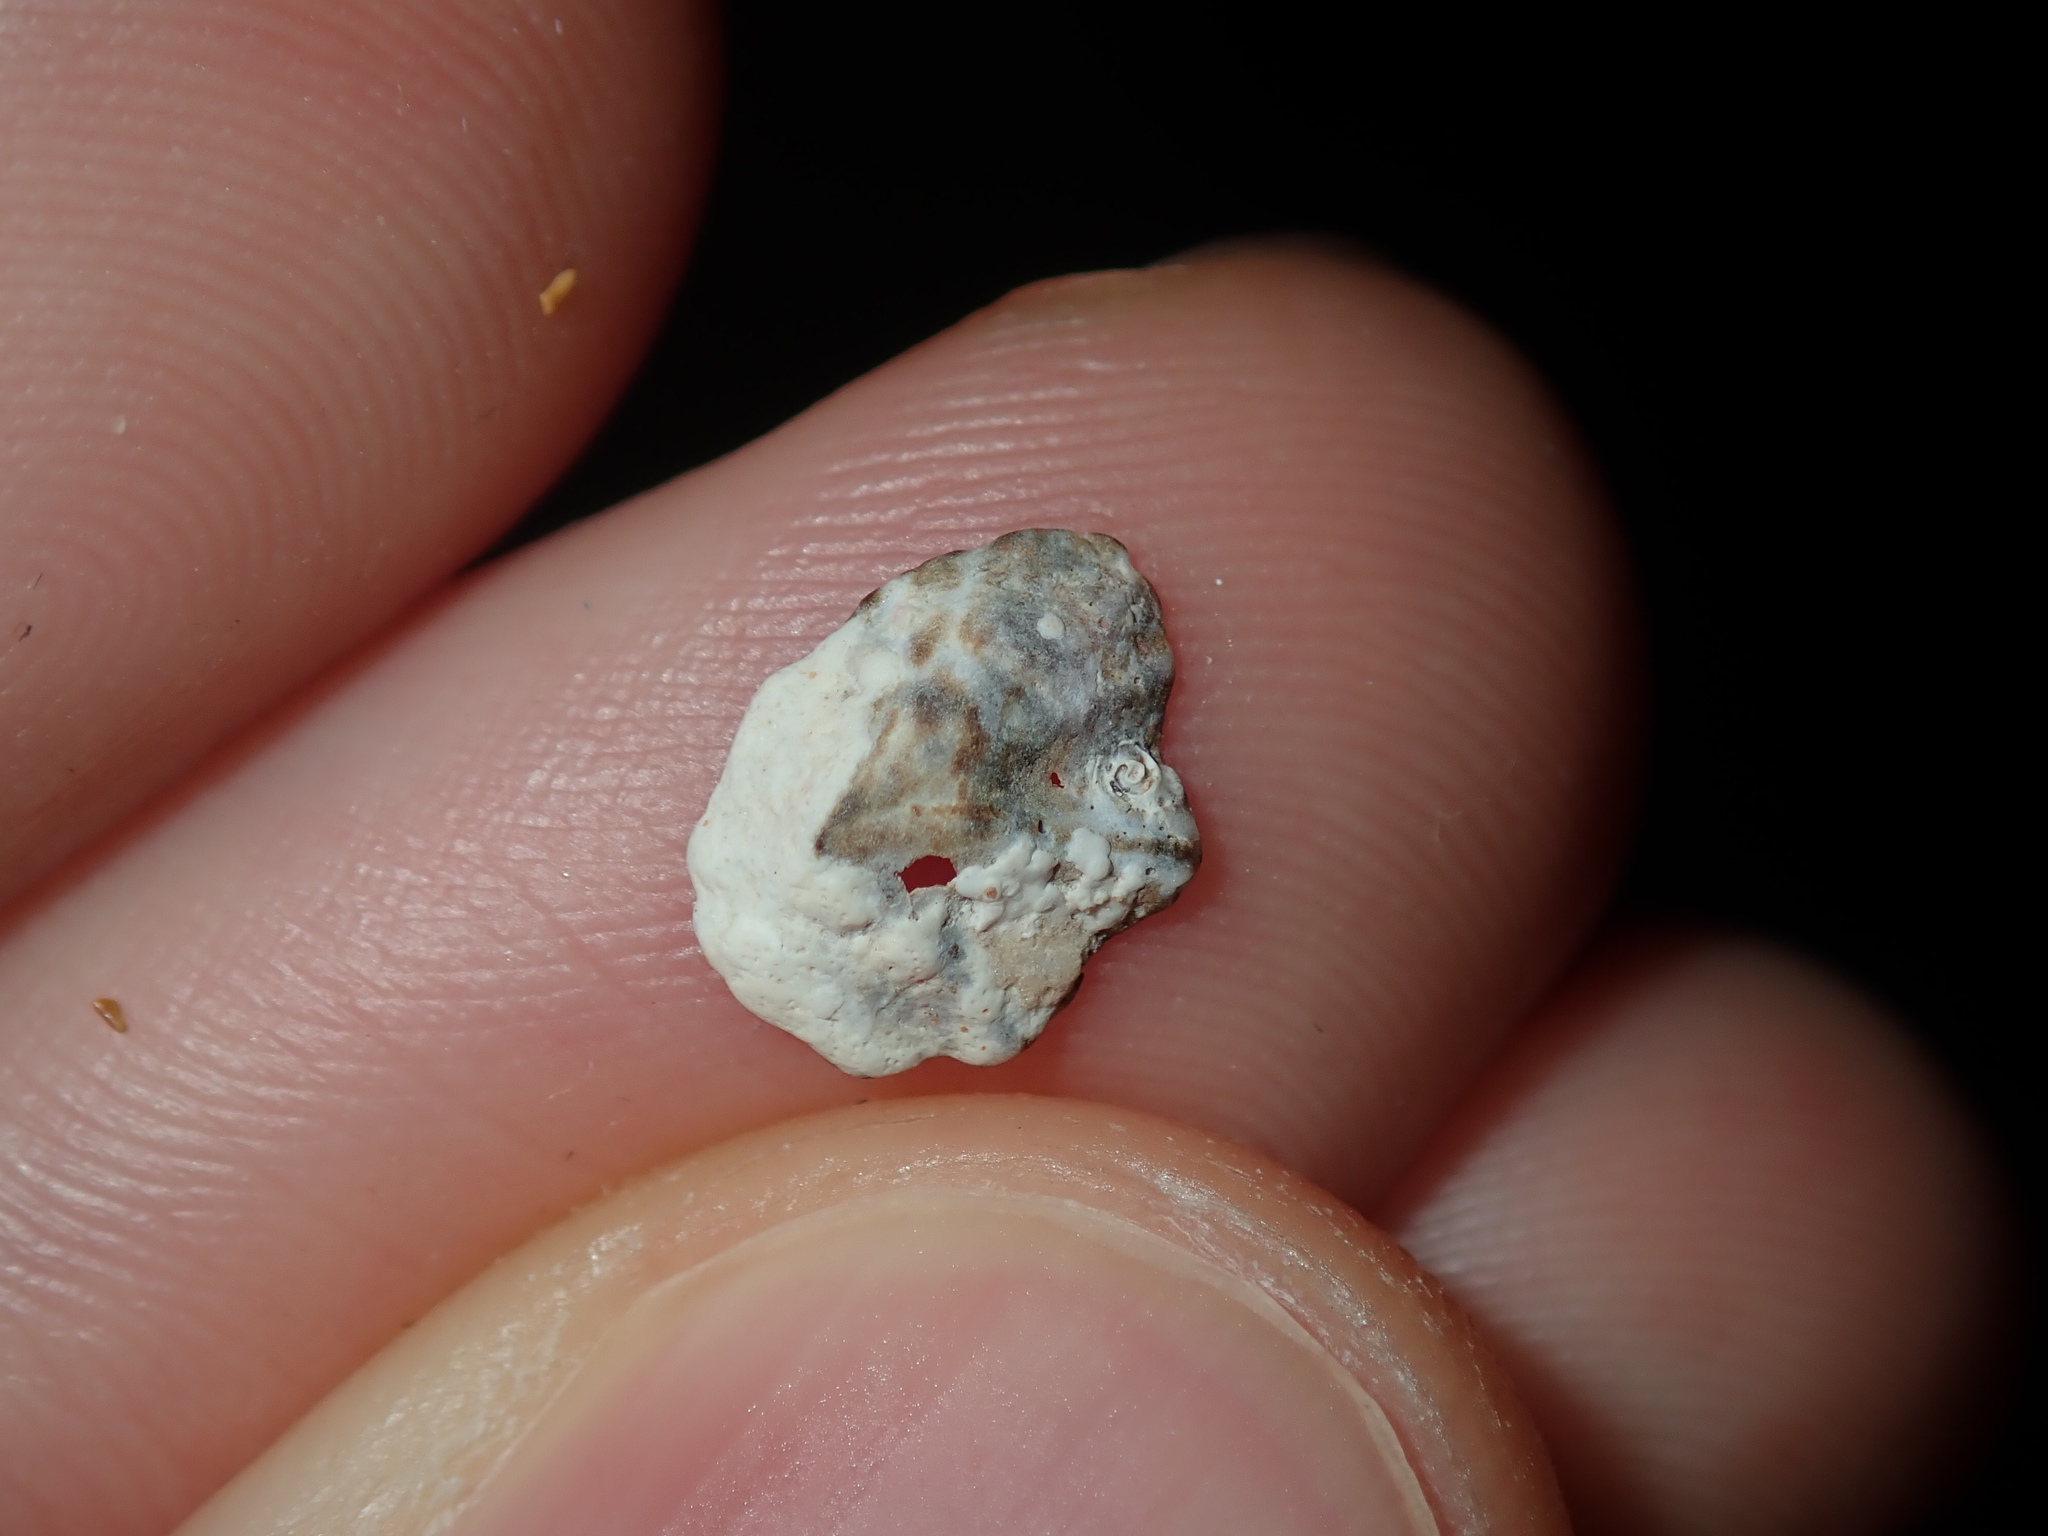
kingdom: Animalia
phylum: Mollusca
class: Gastropoda
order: Siphonariida
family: Siphonariidae
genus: Siphonaria
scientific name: Siphonaria denticulata
